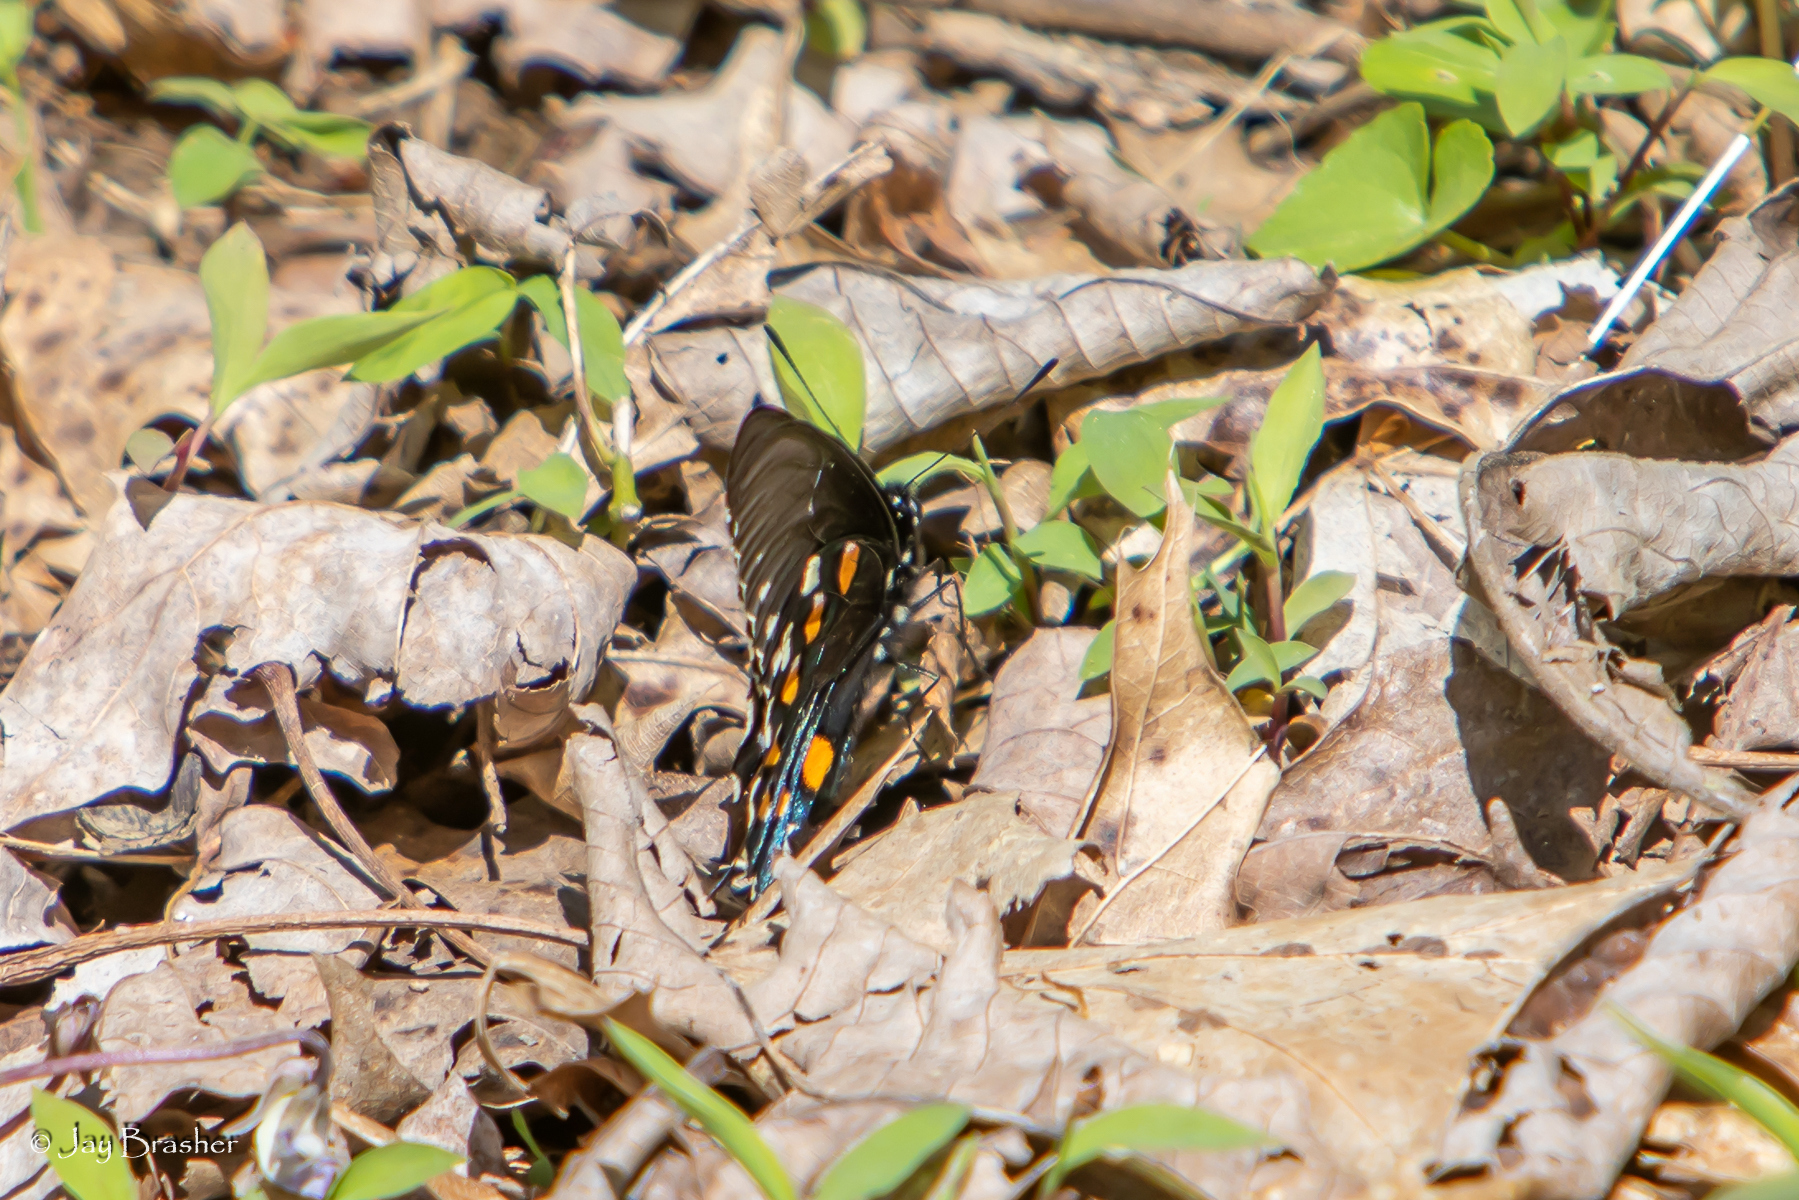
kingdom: Animalia
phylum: Arthropoda
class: Insecta
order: Lepidoptera
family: Papilionidae
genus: Battus
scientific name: Battus philenor
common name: Pipevine swallowtail
